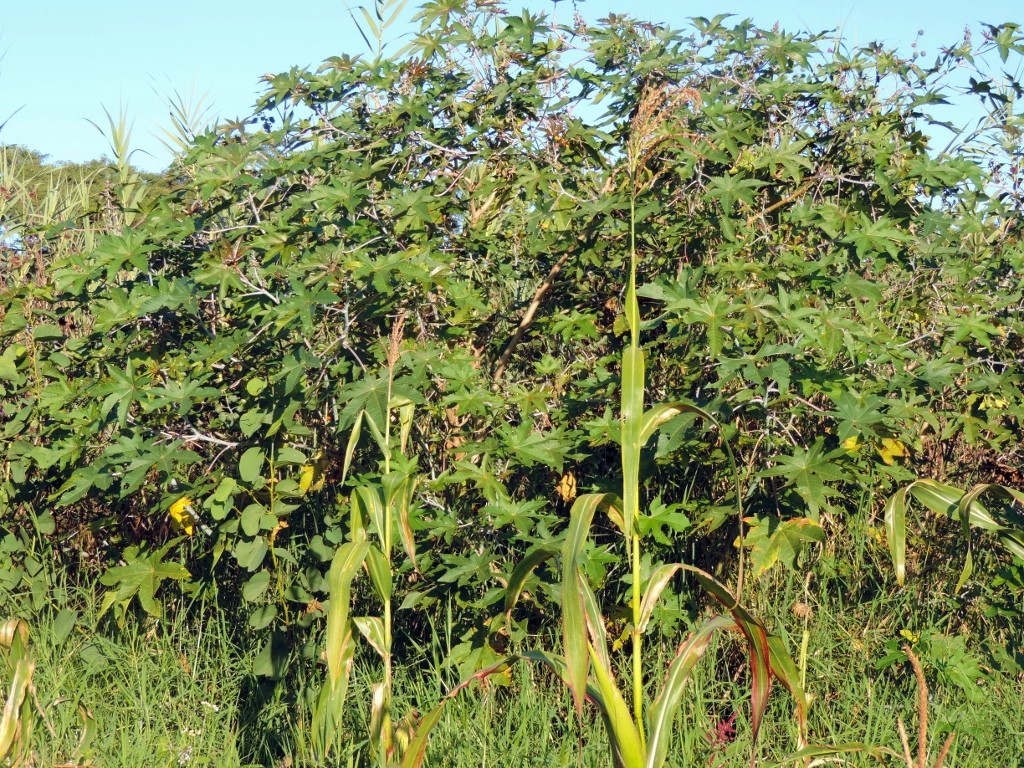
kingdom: Plantae
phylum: Tracheophyta
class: Magnoliopsida
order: Malpighiales
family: Euphorbiaceae
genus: Ricinus
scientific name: Ricinus communis
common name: Castor-oil-plant
